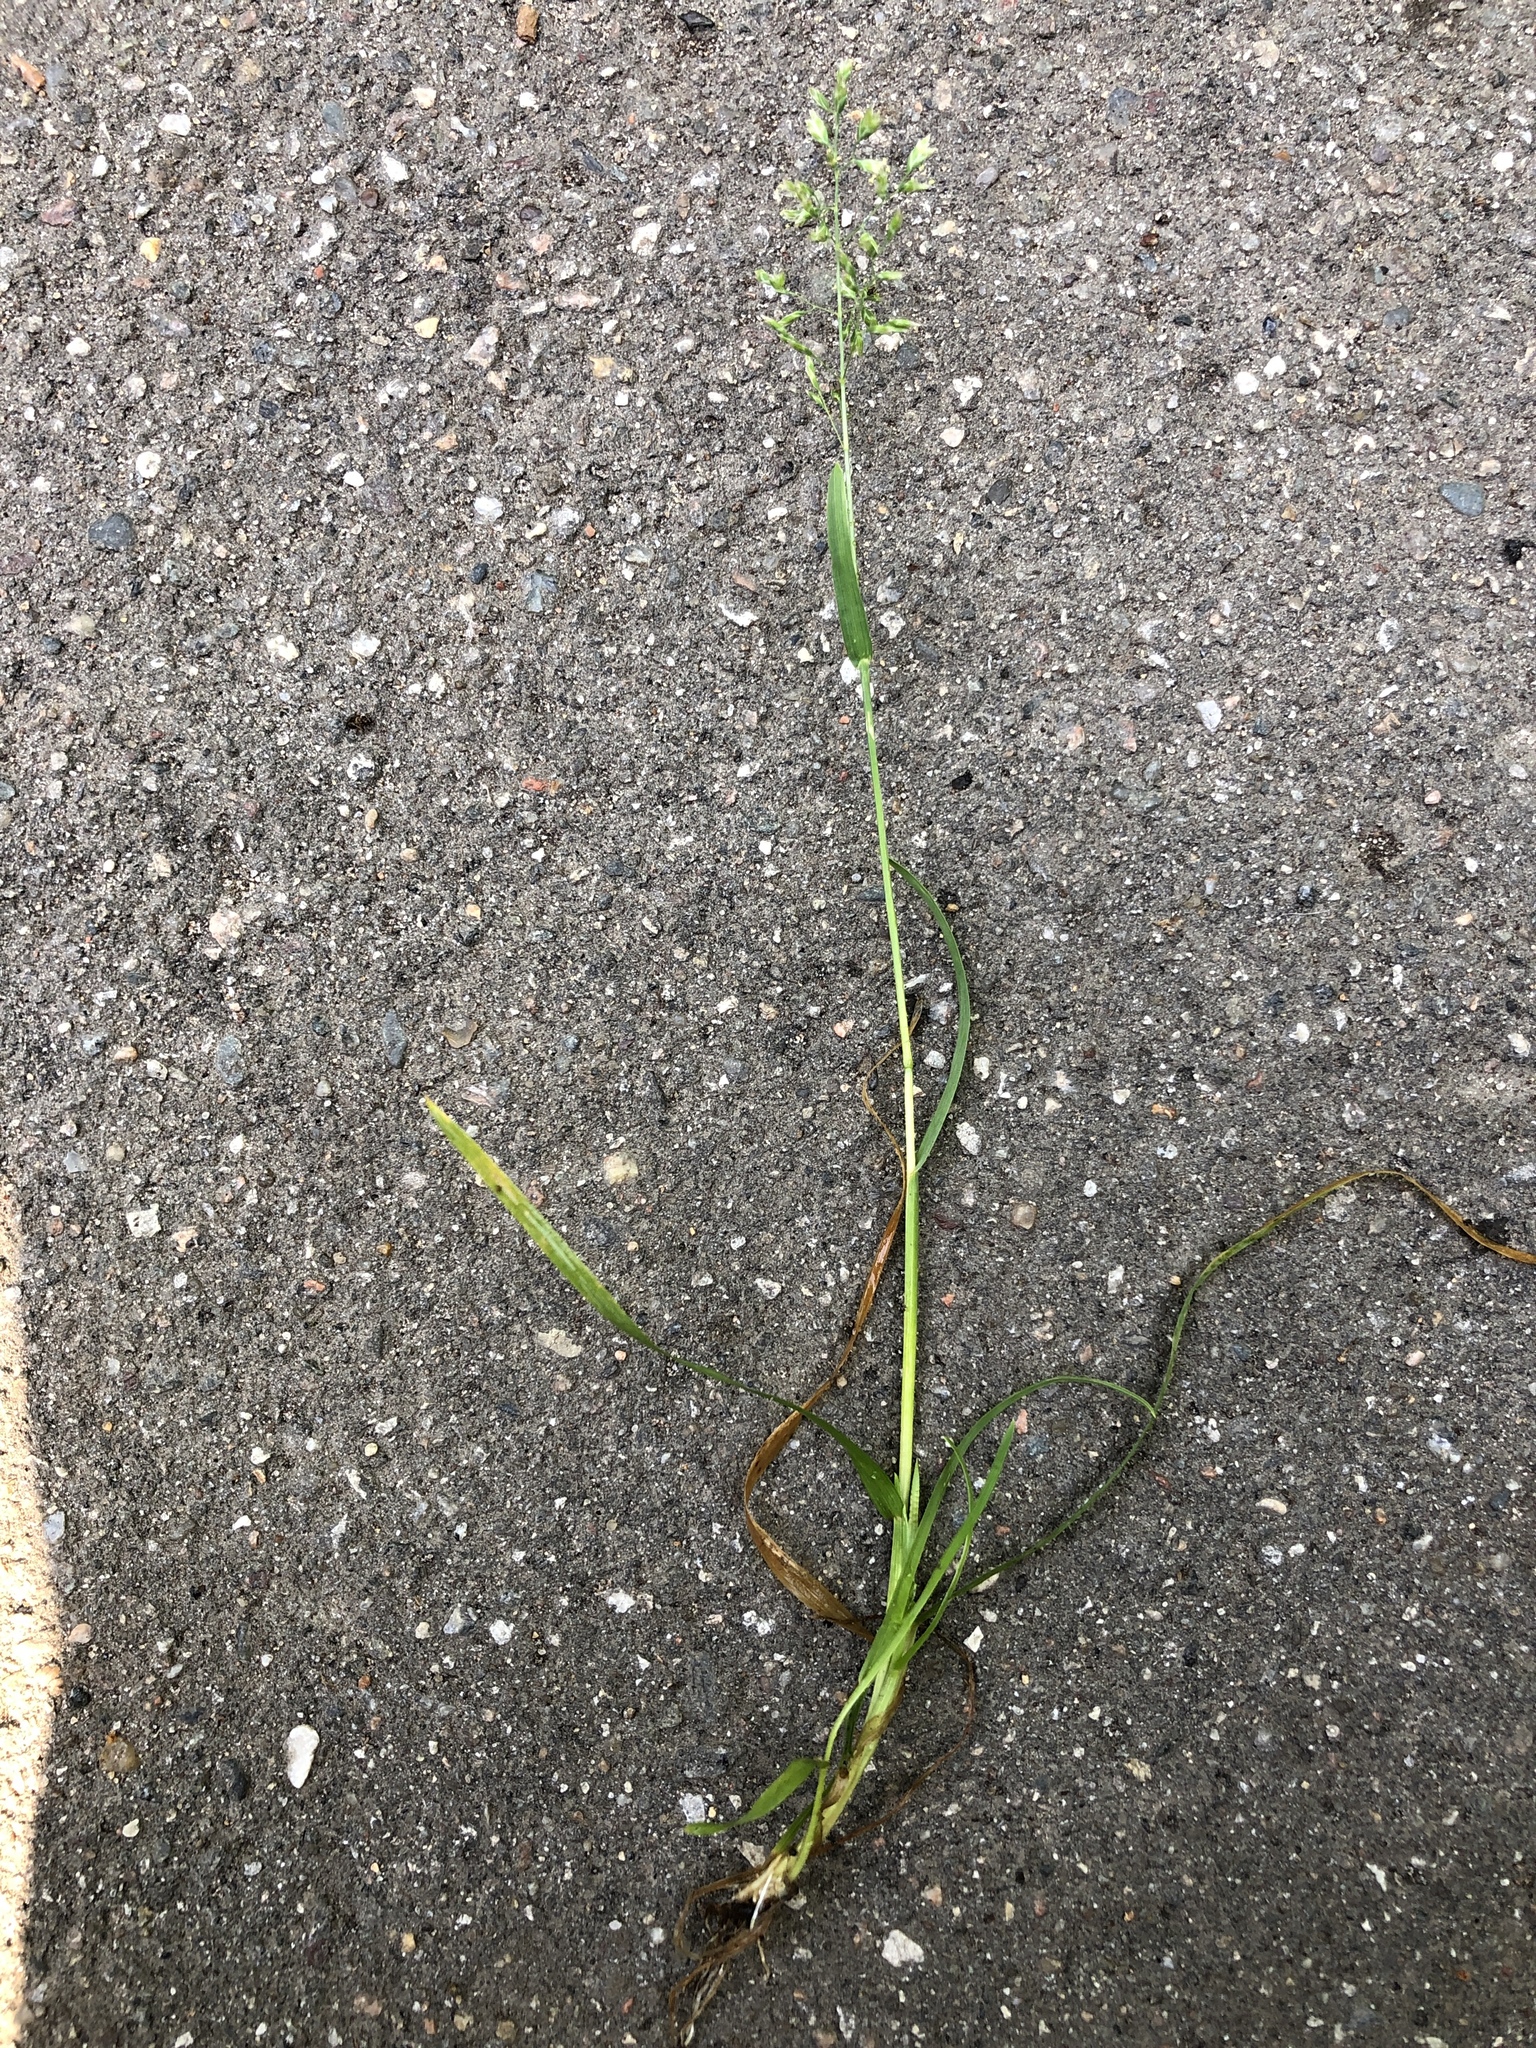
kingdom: Plantae
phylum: Tracheophyta
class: Liliopsida
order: Poales
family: Poaceae
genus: Poa
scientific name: Poa annua
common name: Annual bluegrass
